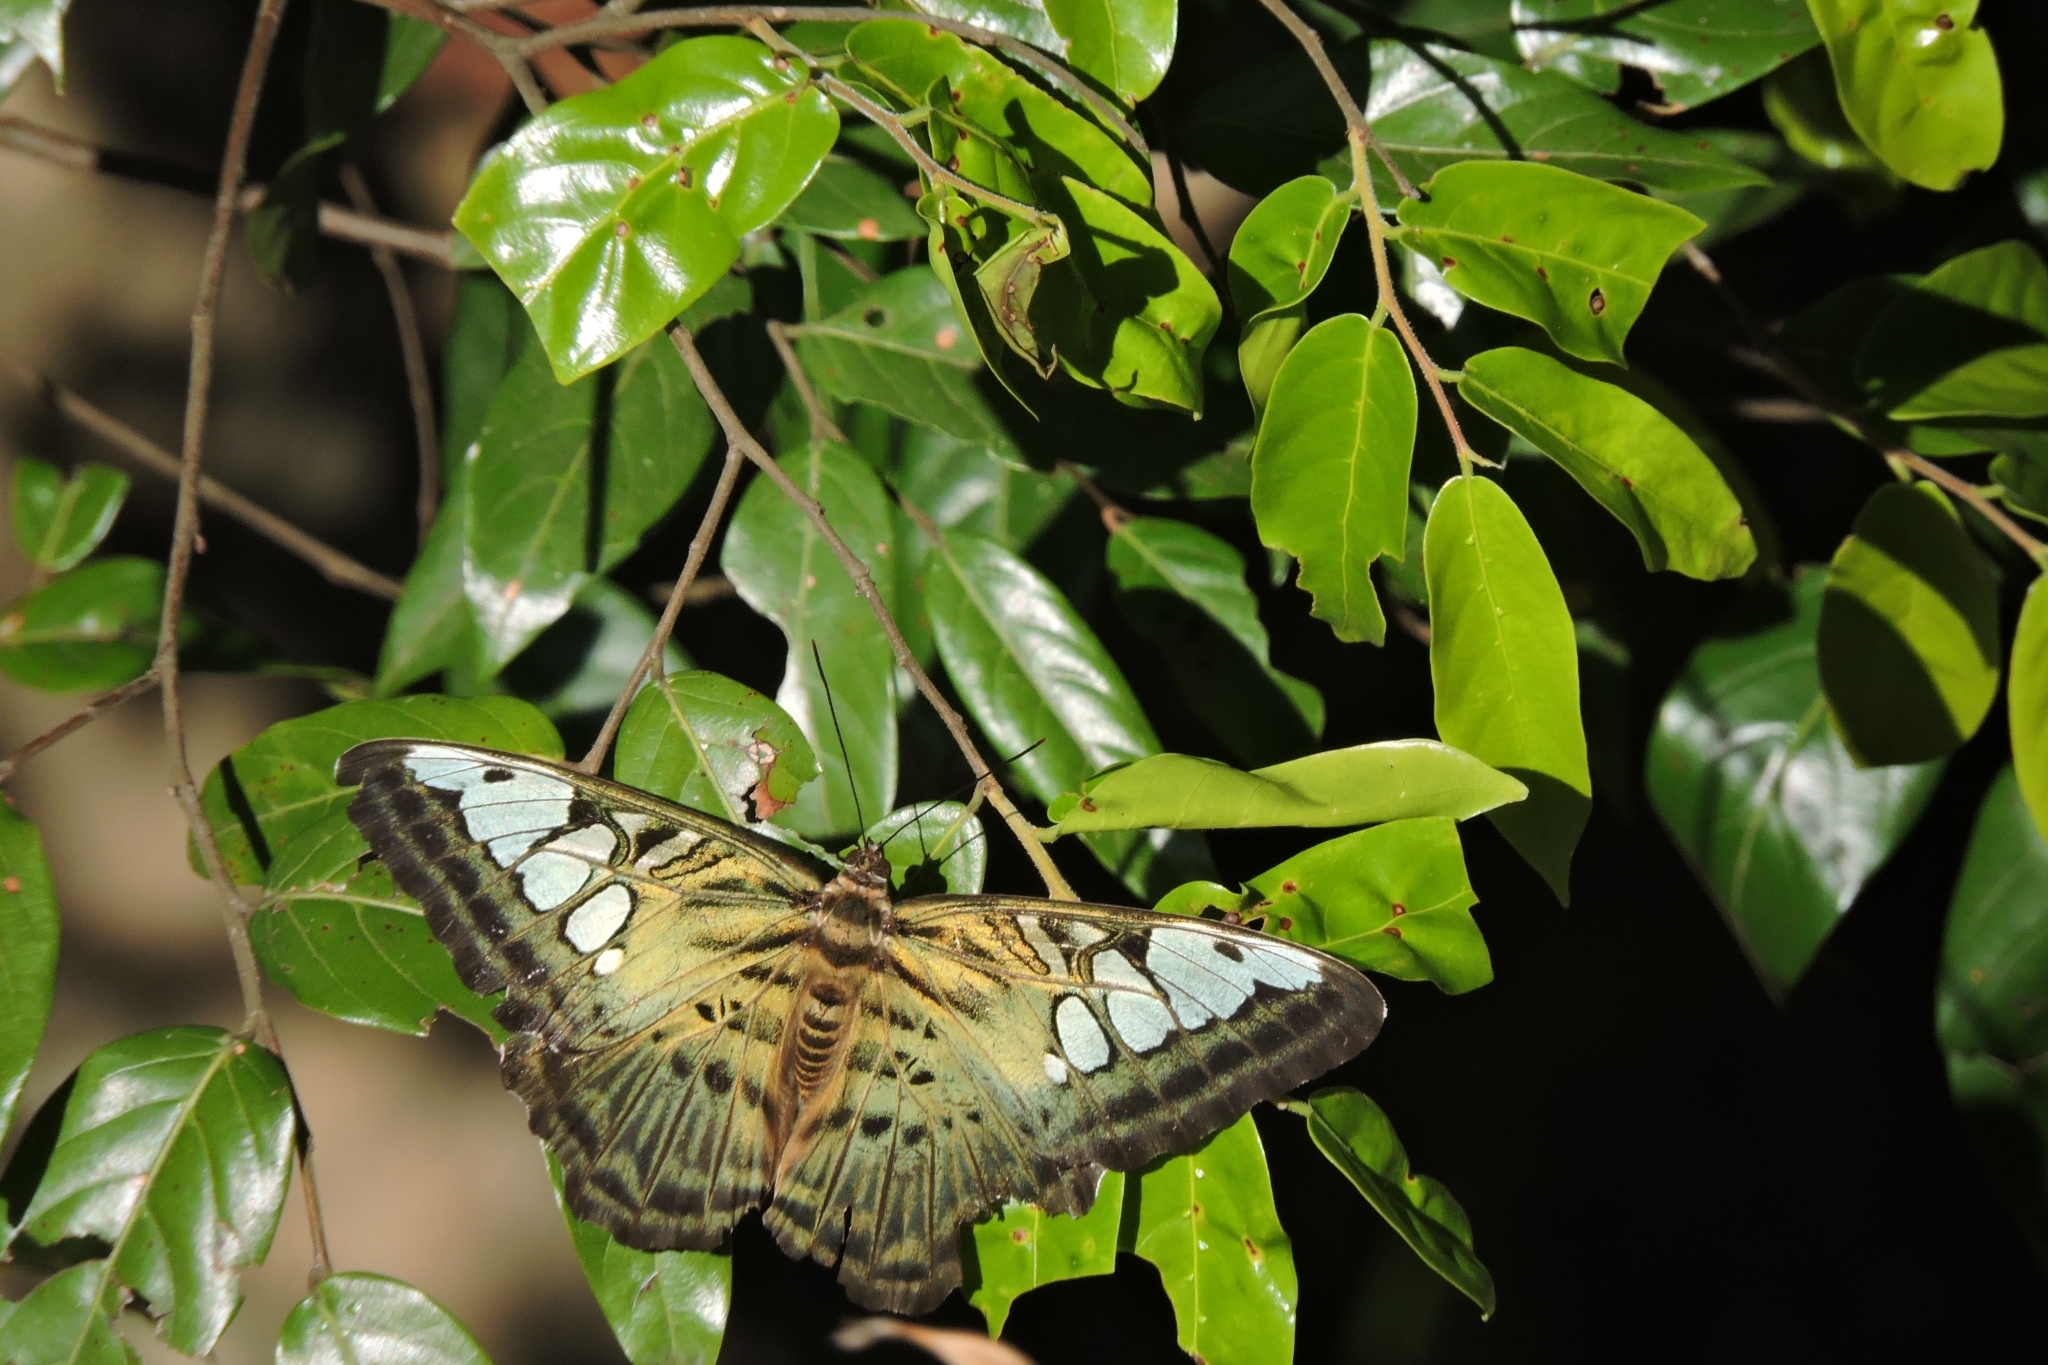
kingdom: Animalia
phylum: Arthropoda
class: Insecta
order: Lepidoptera
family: Nymphalidae
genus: Kallima
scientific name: Kallima sylvia
